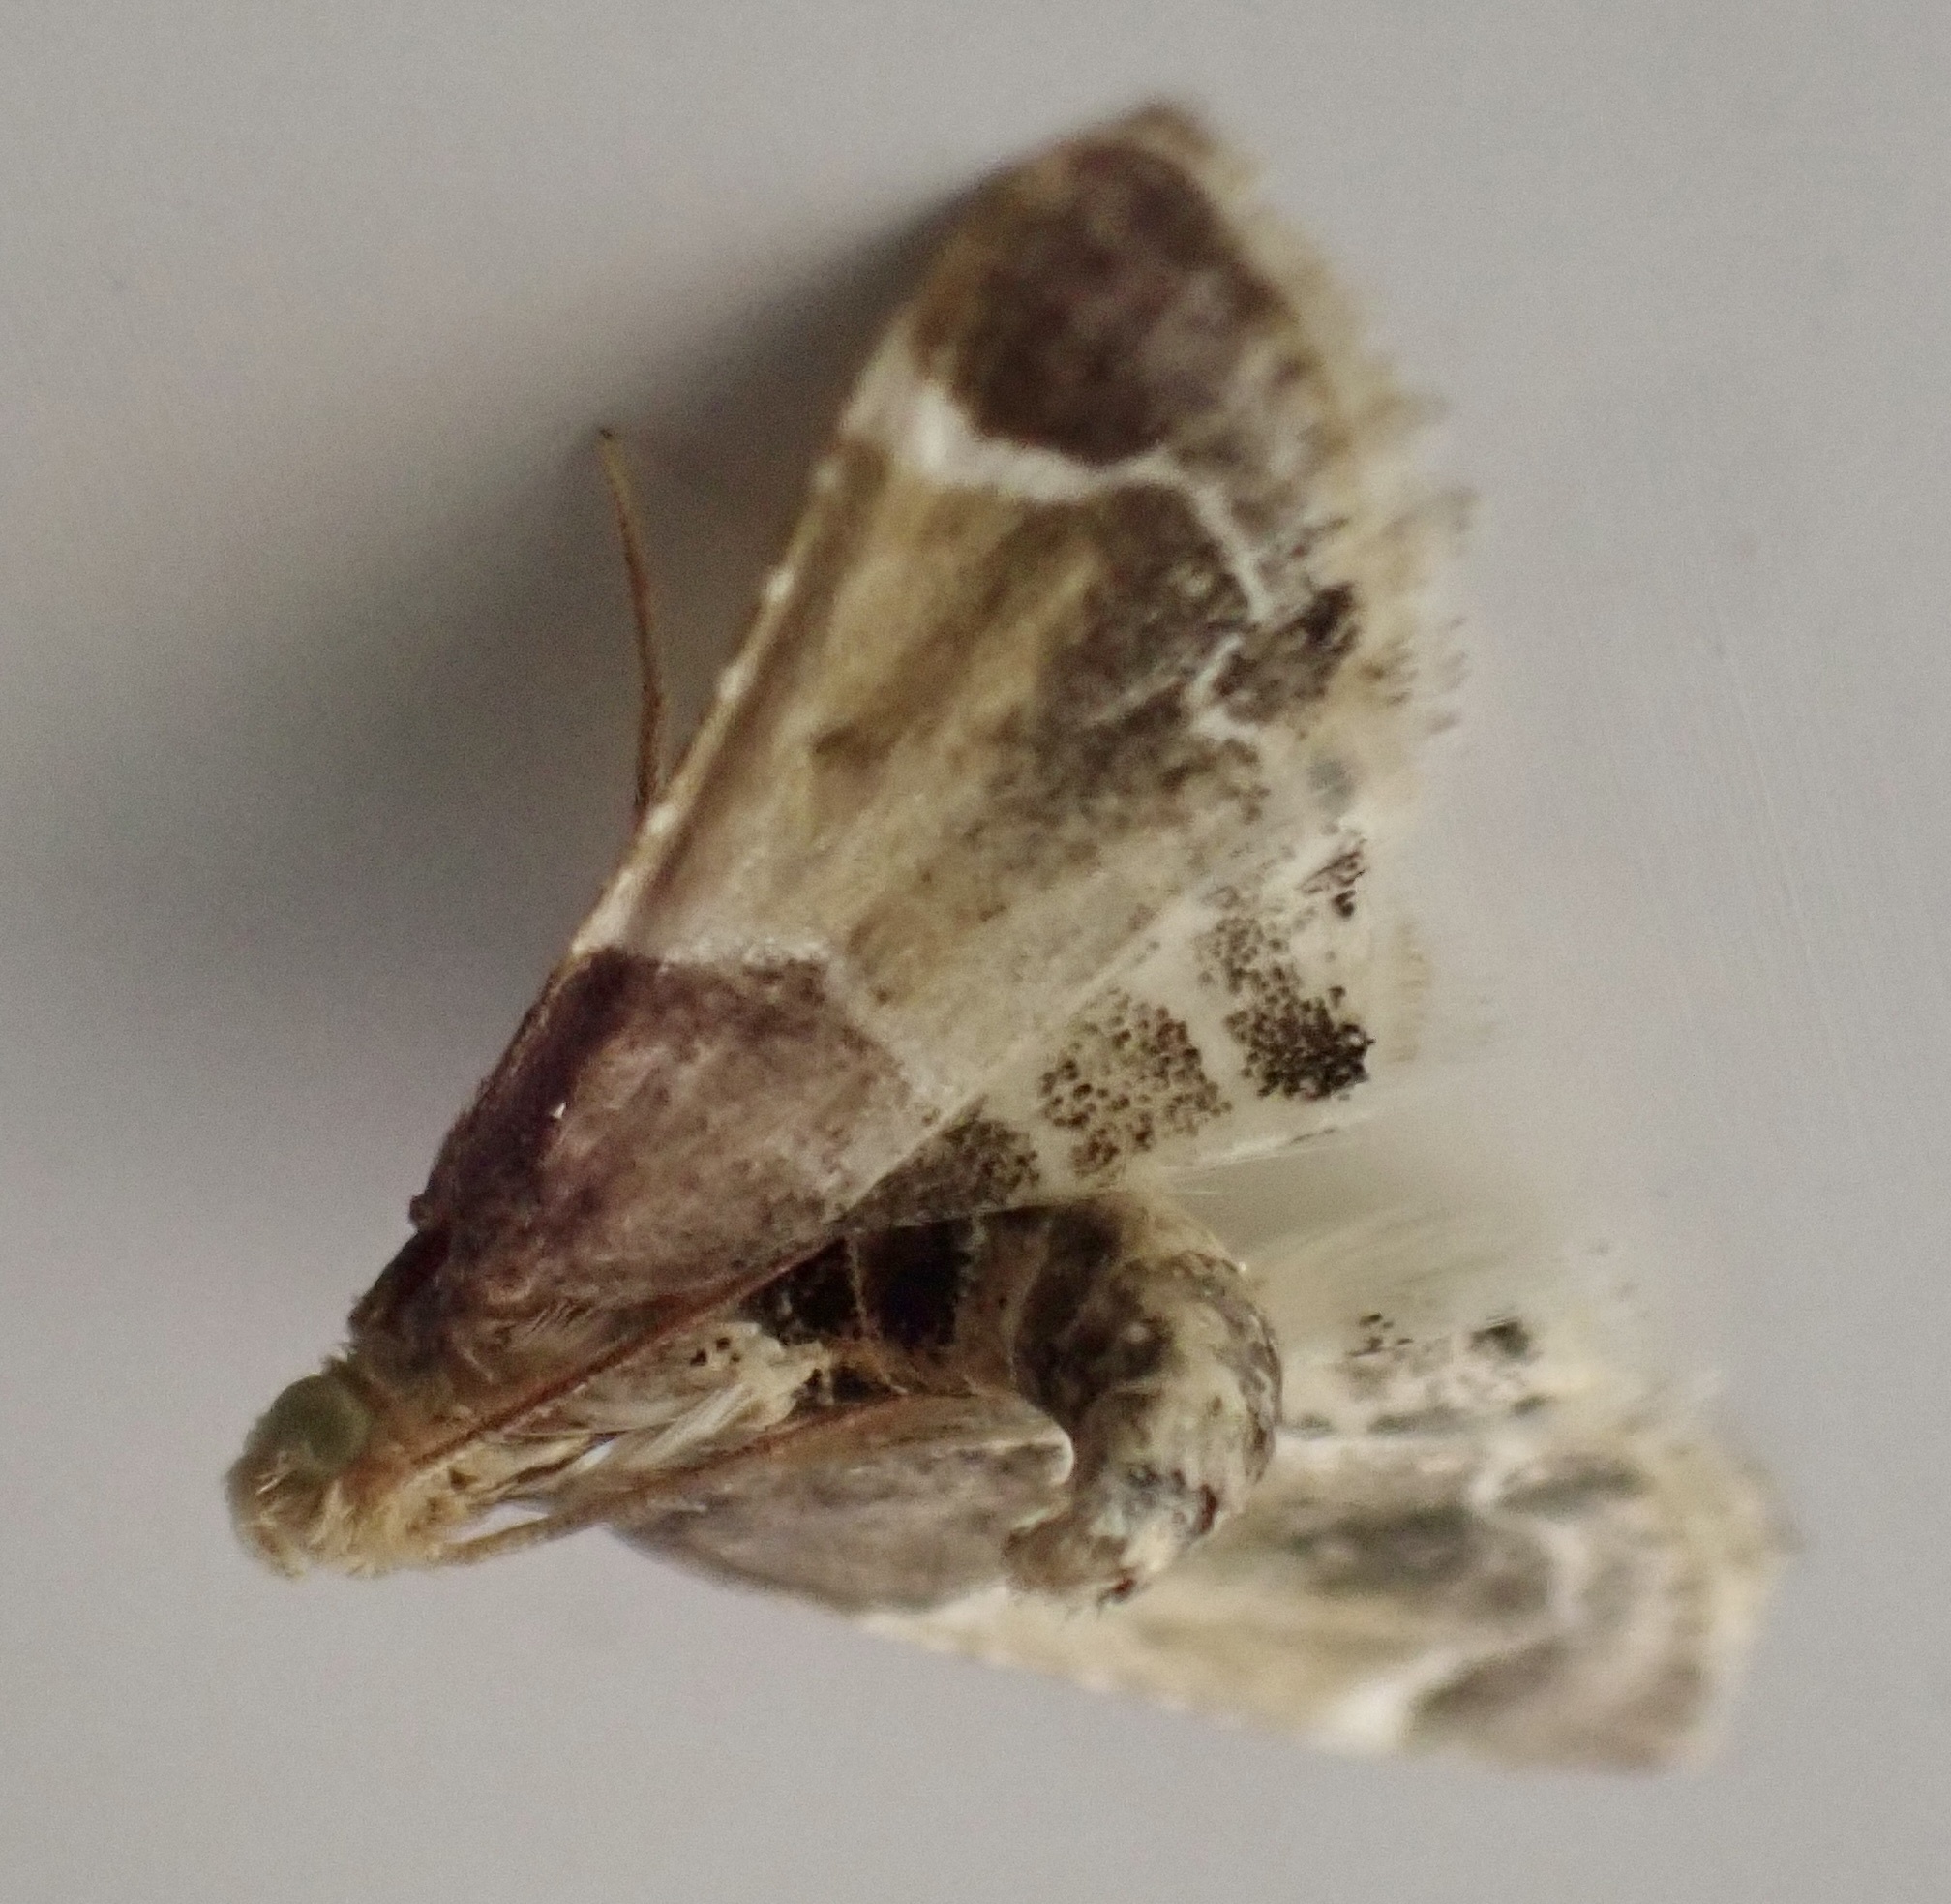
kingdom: Animalia
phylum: Arthropoda
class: Insecta
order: Lepidoptera
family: Pyralidae
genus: Pyralis
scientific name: Pyralis farinalis
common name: Meal moth
